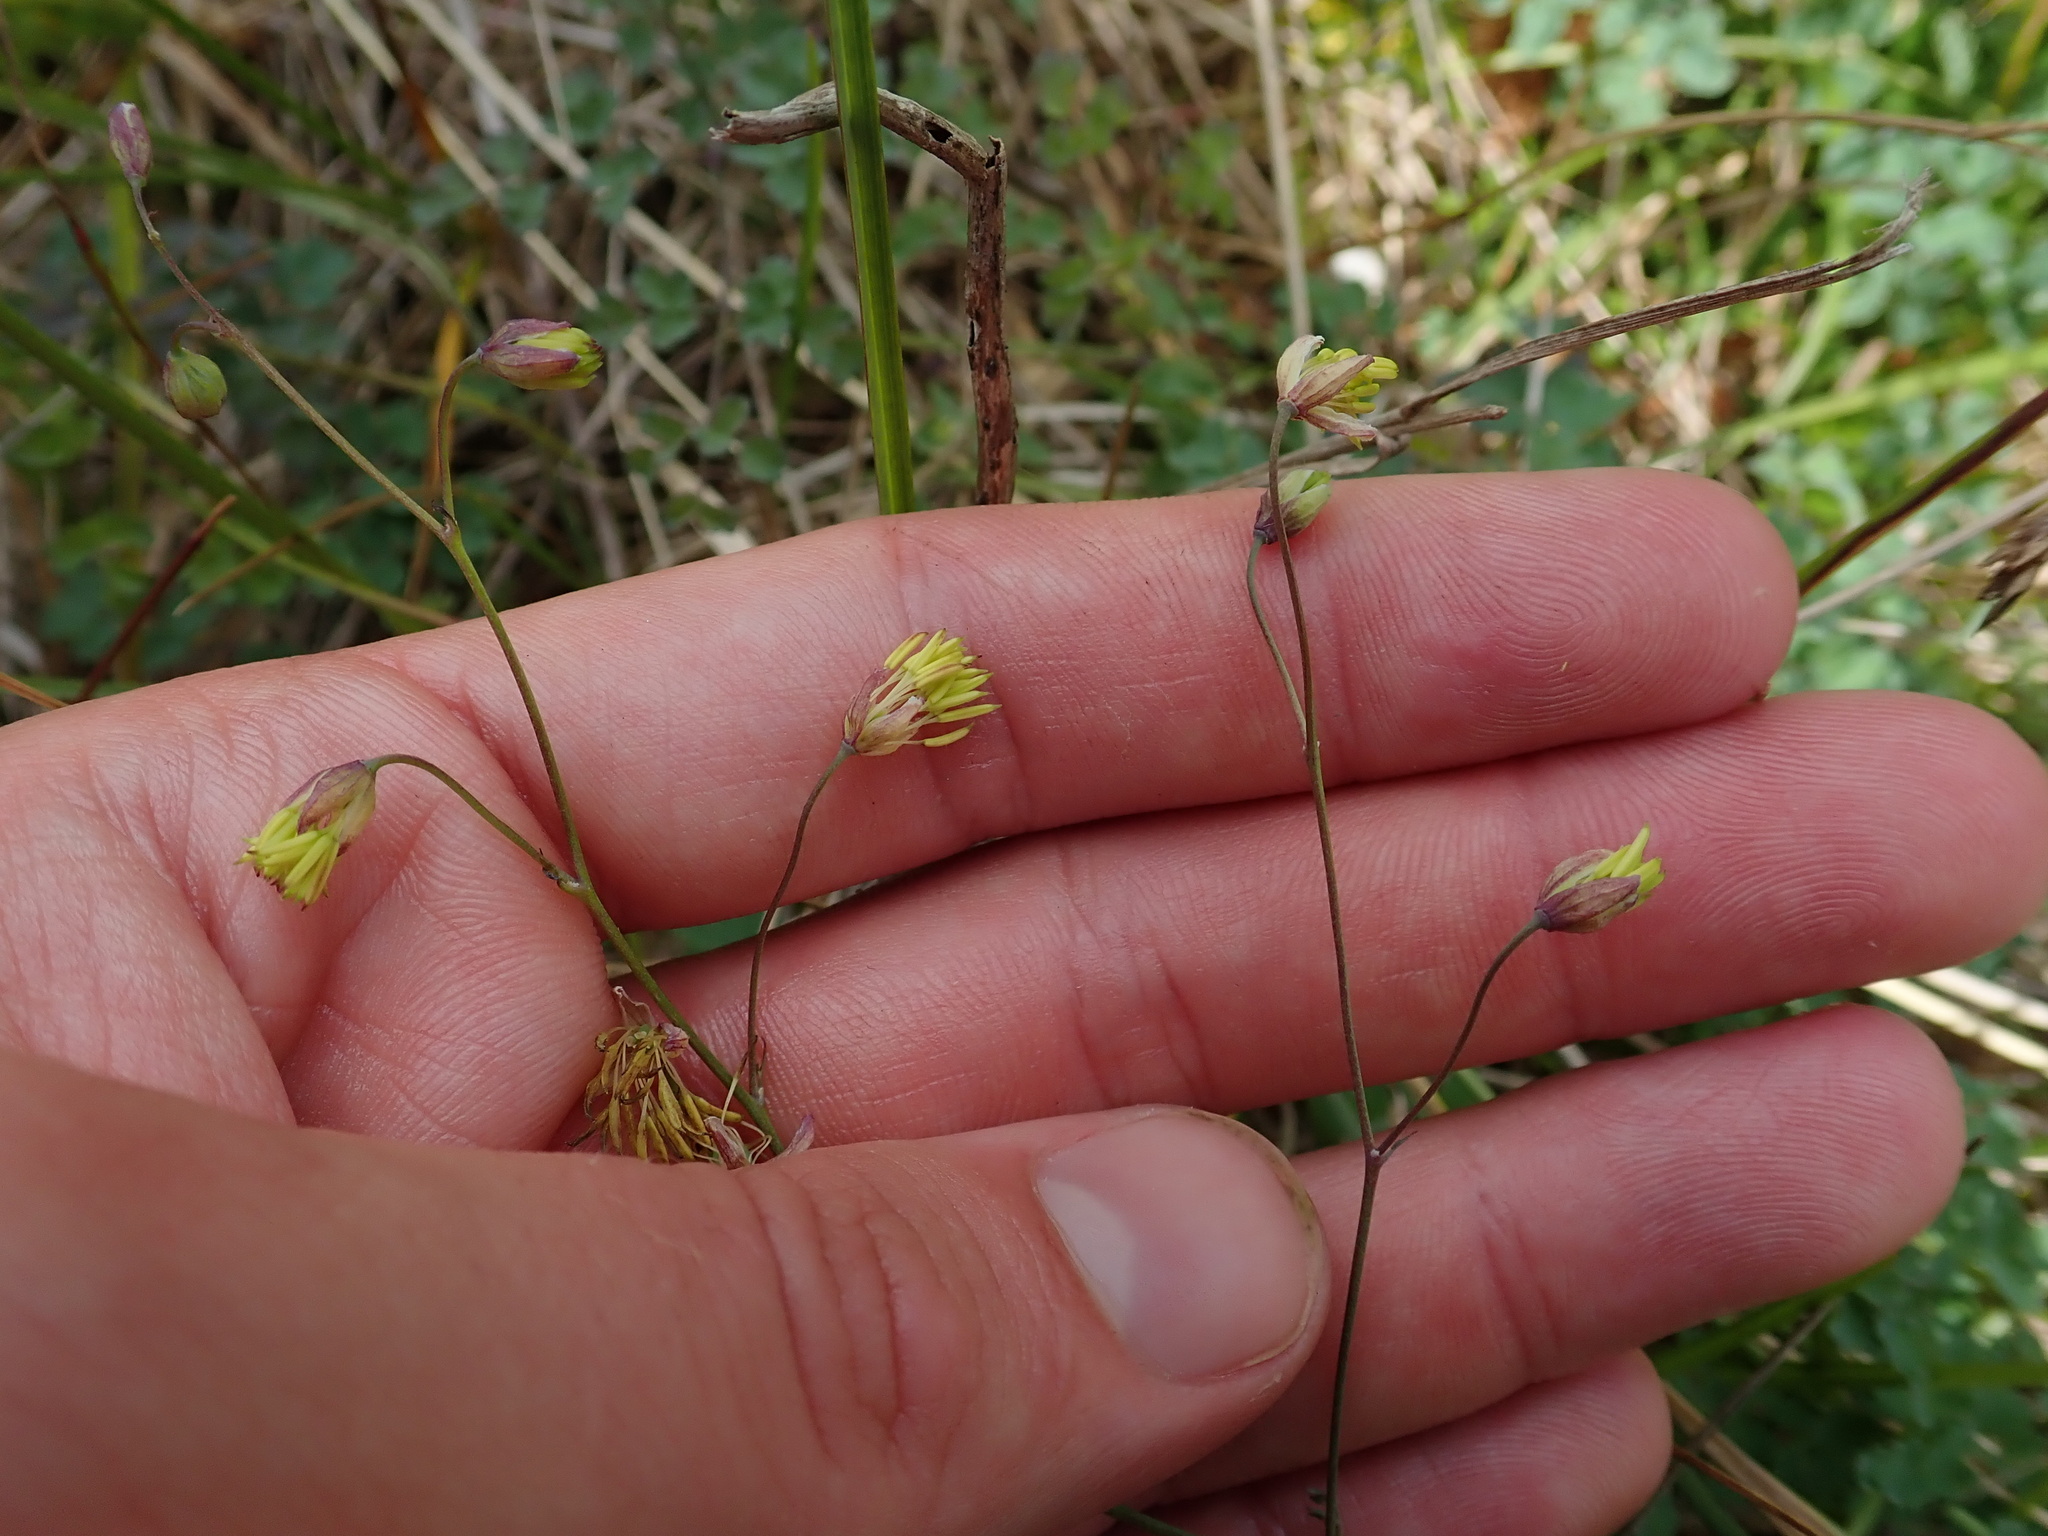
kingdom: Plantae
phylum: Tracheophyta
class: Magnoliopsida
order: Ranunculales
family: Ranunculaceae
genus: Thalictrum
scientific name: Thalictrum minus
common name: Lesser meadow-rue
